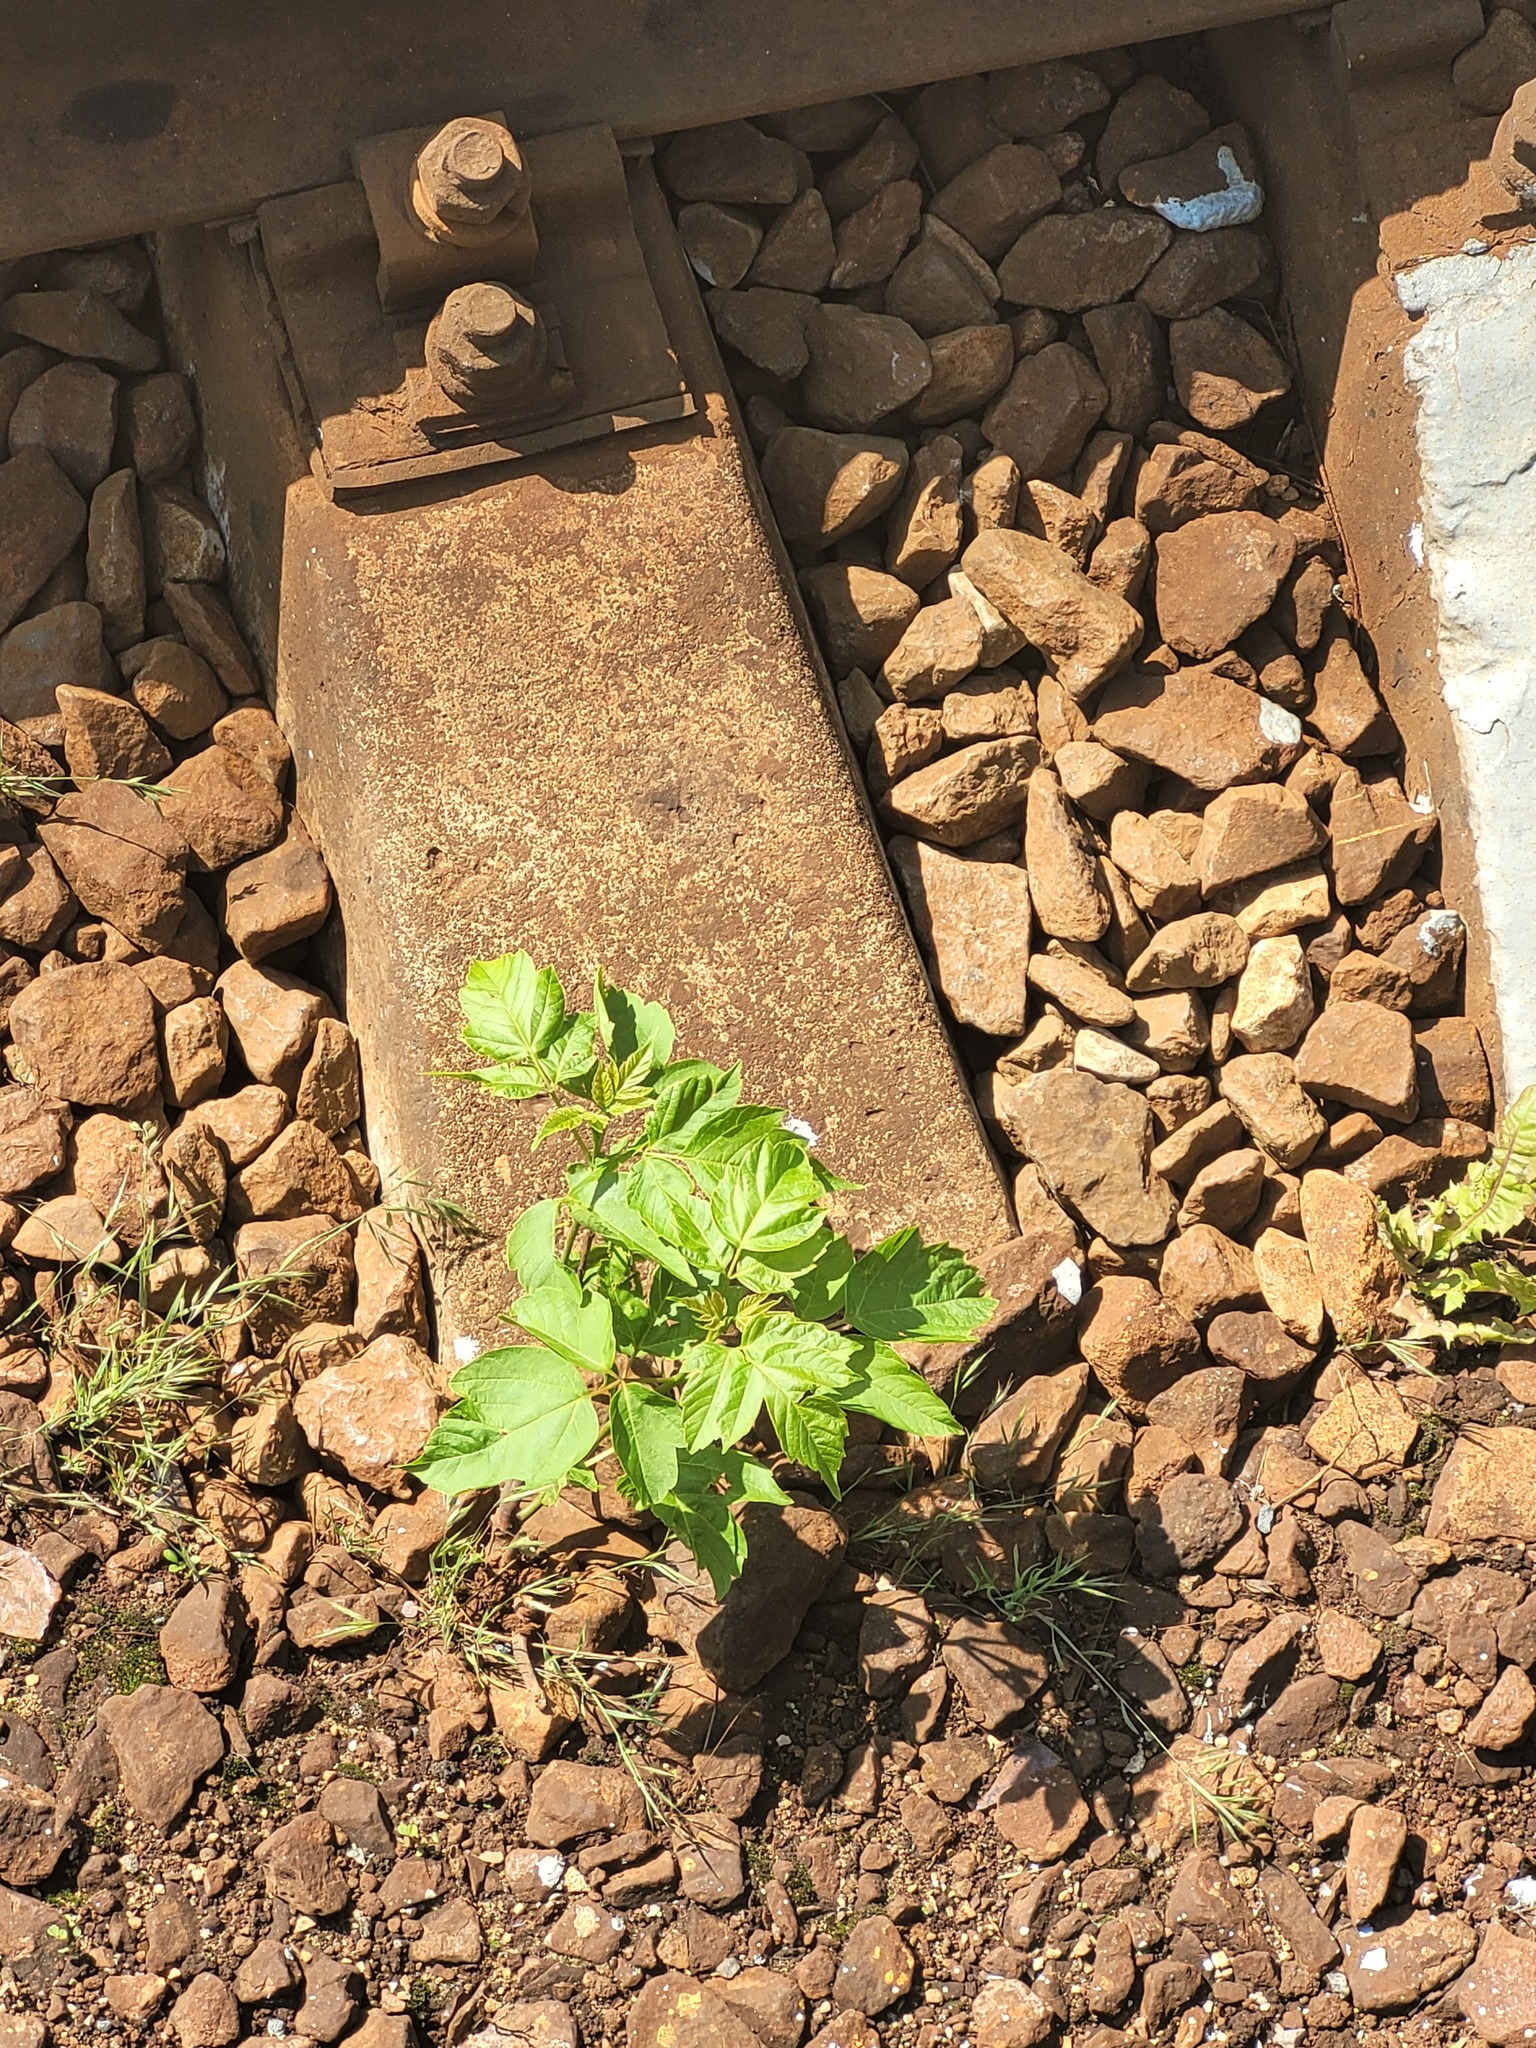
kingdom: Plantae
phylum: Tracheophyta
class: Magnoliopsida
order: Sapindales
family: Sapindaceae
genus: Acer
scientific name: Acer negundo
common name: Ashleaf maple
